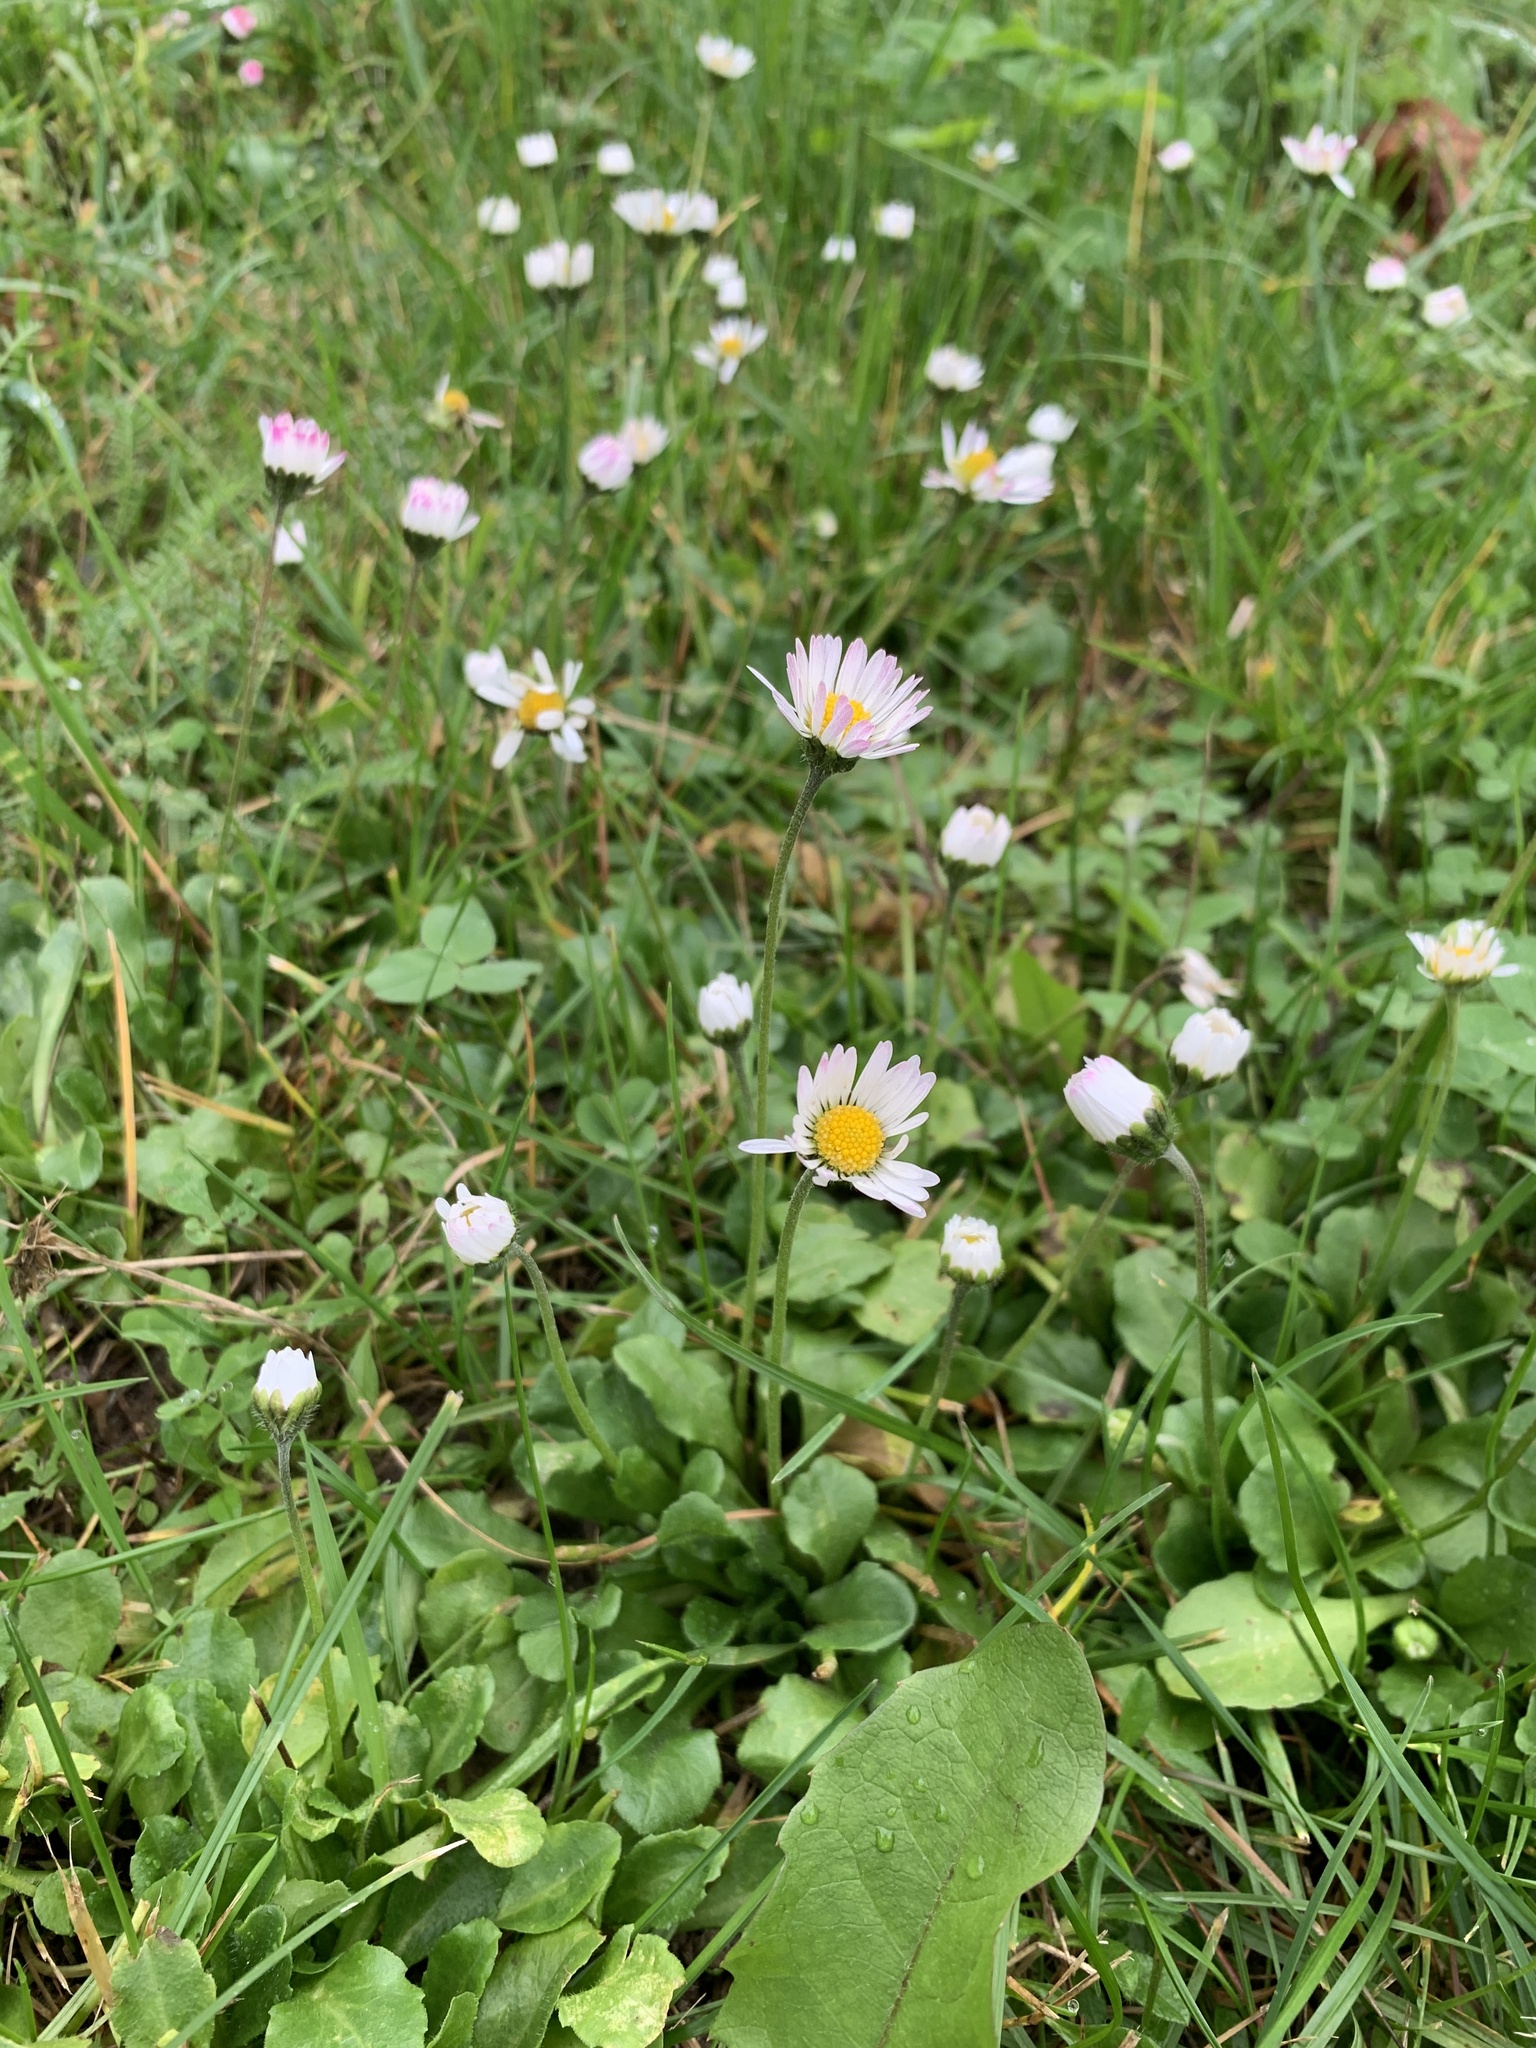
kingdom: Plantae
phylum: Tracheophyta
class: Magnoliopsida
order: Asterales
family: Asteraceae
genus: Bellis
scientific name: Bellis perennis
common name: Lawndaisy
